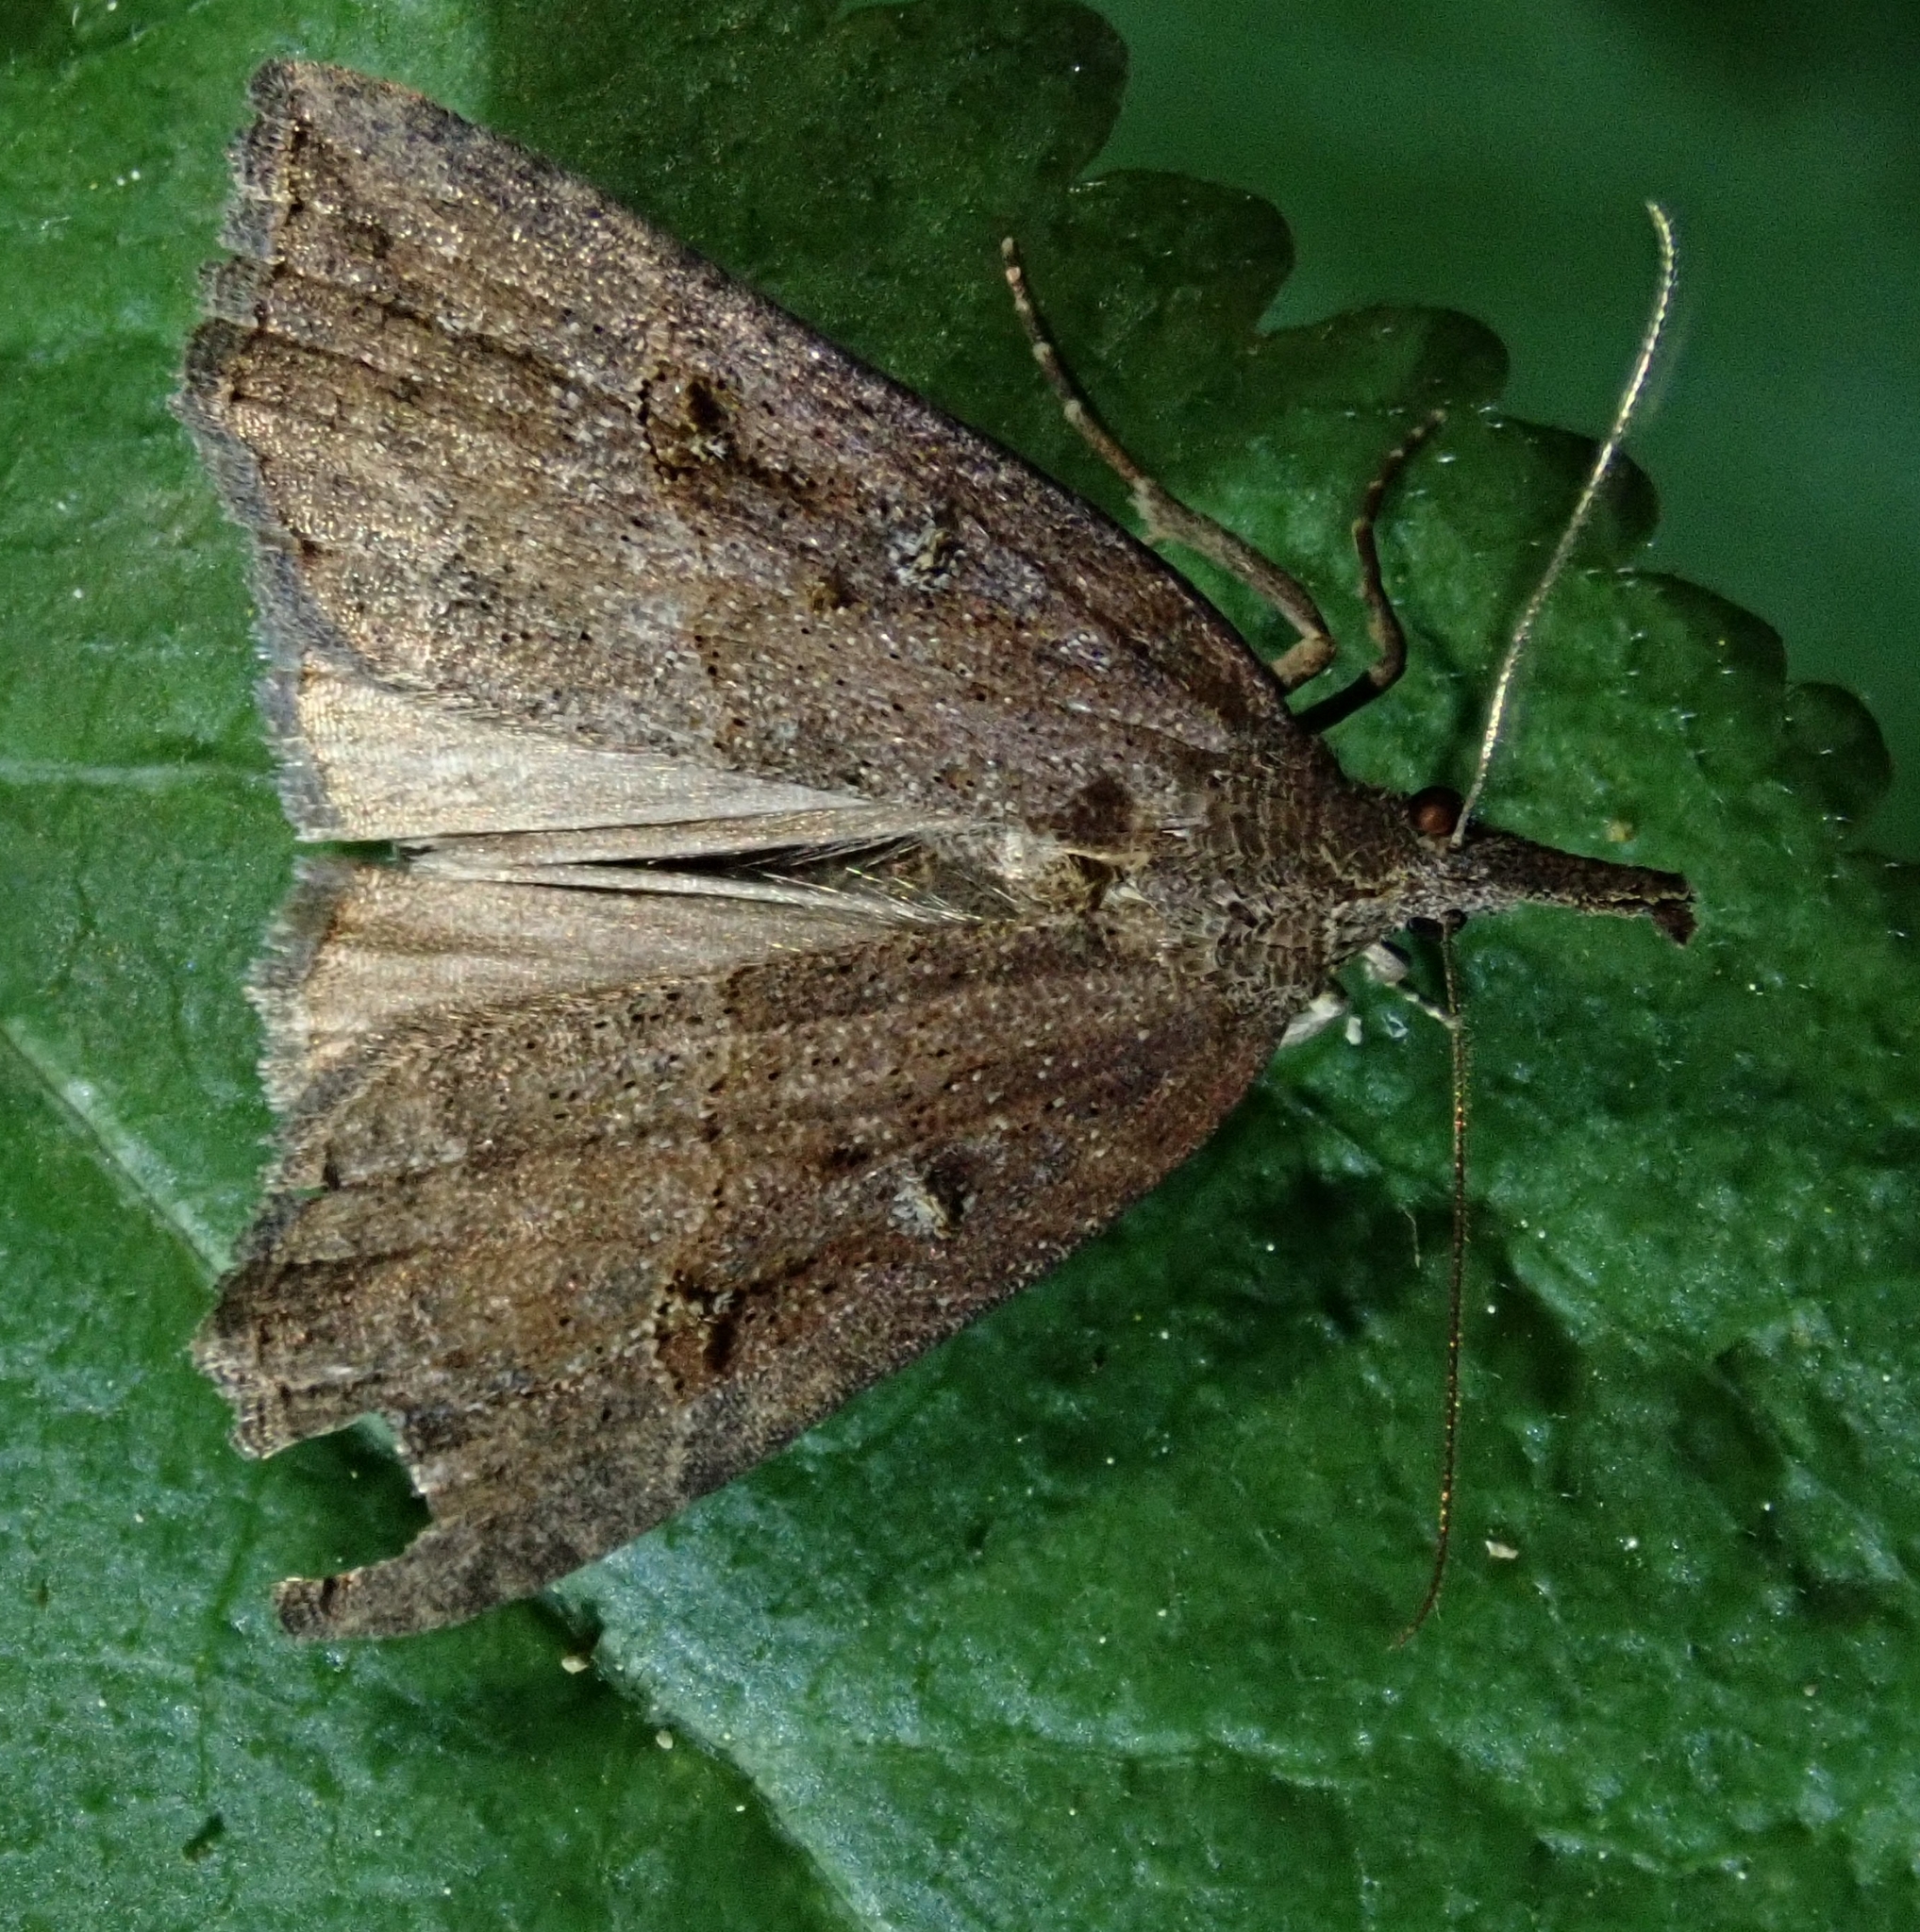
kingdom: Animalia
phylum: Arthropoda
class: Insecta
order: Lepidoptera
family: Erebidae
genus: Hypena
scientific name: Hypena rostralis
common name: Buttoned snout
